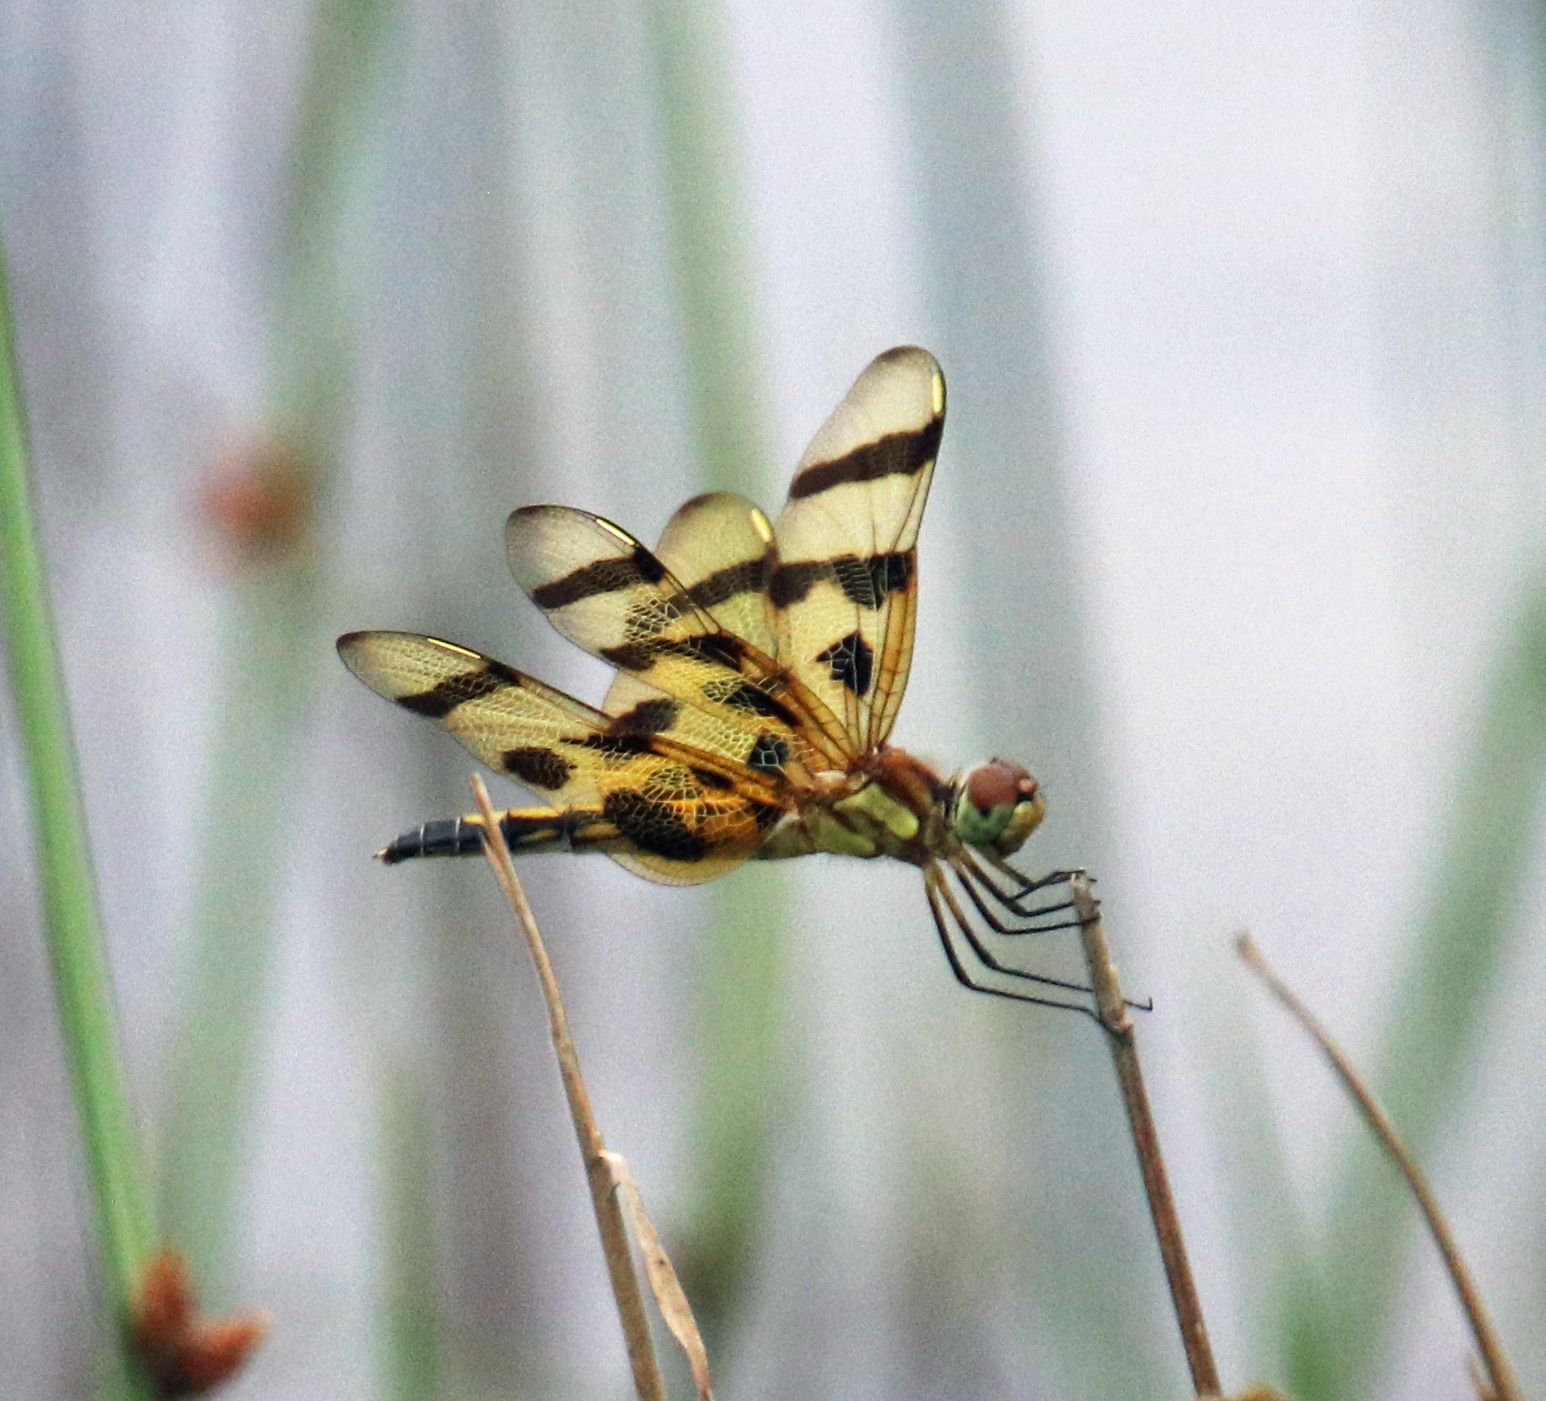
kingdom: Animalia
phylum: Arthropoda
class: Insecta
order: Odonata
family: Libellulidae
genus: Celithemis
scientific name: Celithemis eponina
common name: Halloween pennant
